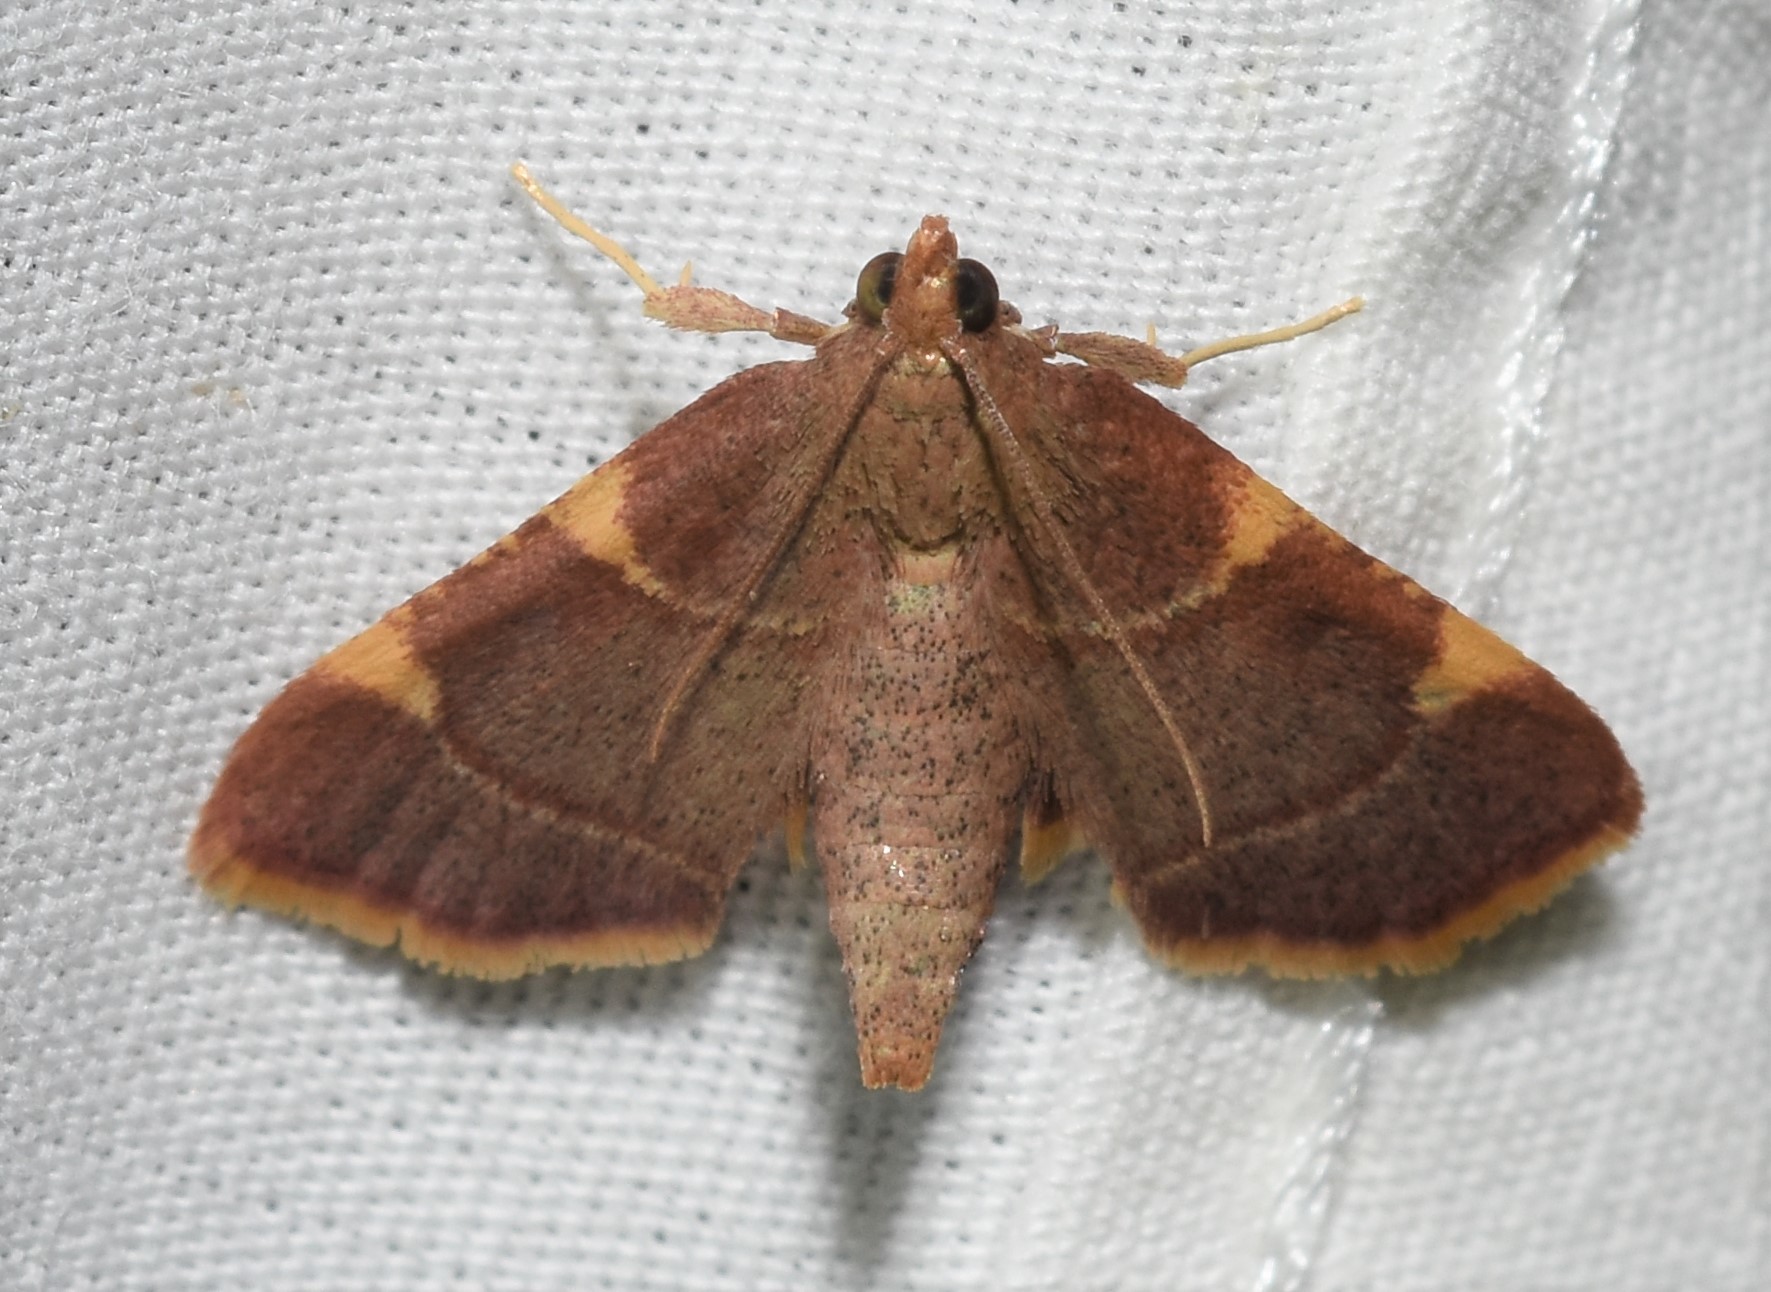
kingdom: Animalia
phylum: Arthropoda
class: Insecta
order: Lepidoptera
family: Pyralidae
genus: Hypsopygia
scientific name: Hypsopygia olinalis
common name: Yellow-fringed dolichomia moth
